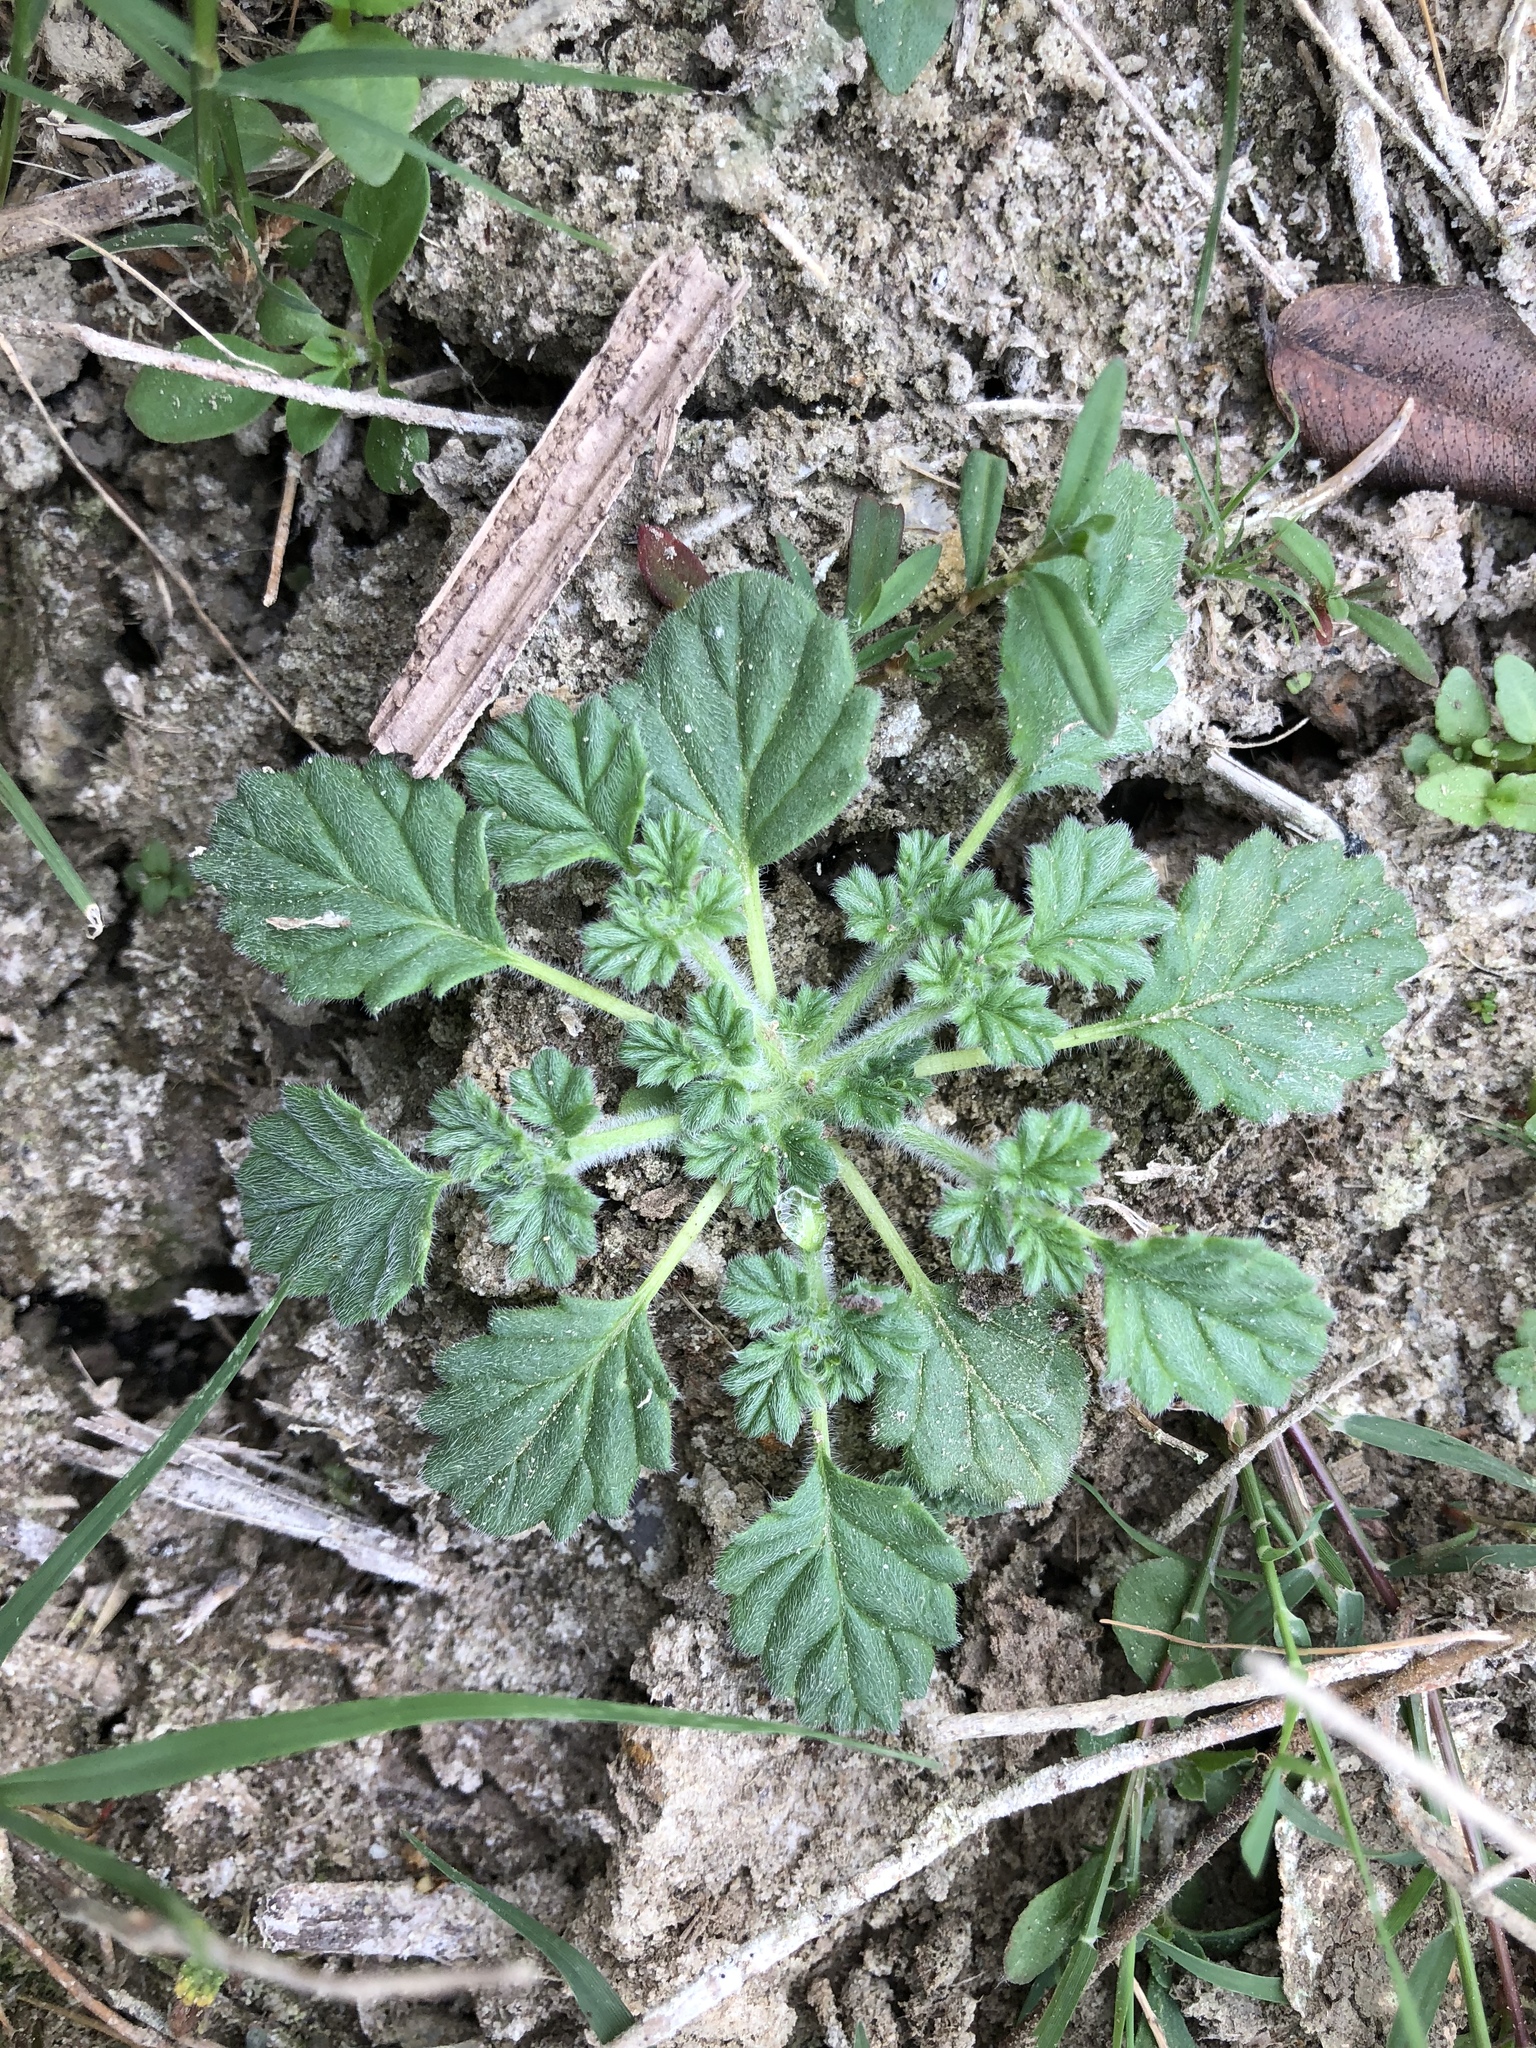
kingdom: Plantae
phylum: Tracheophyta
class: Magnoliopsida
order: Boraginales
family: Coldeniaceae
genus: Coldenia
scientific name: Coldenia procumbens
